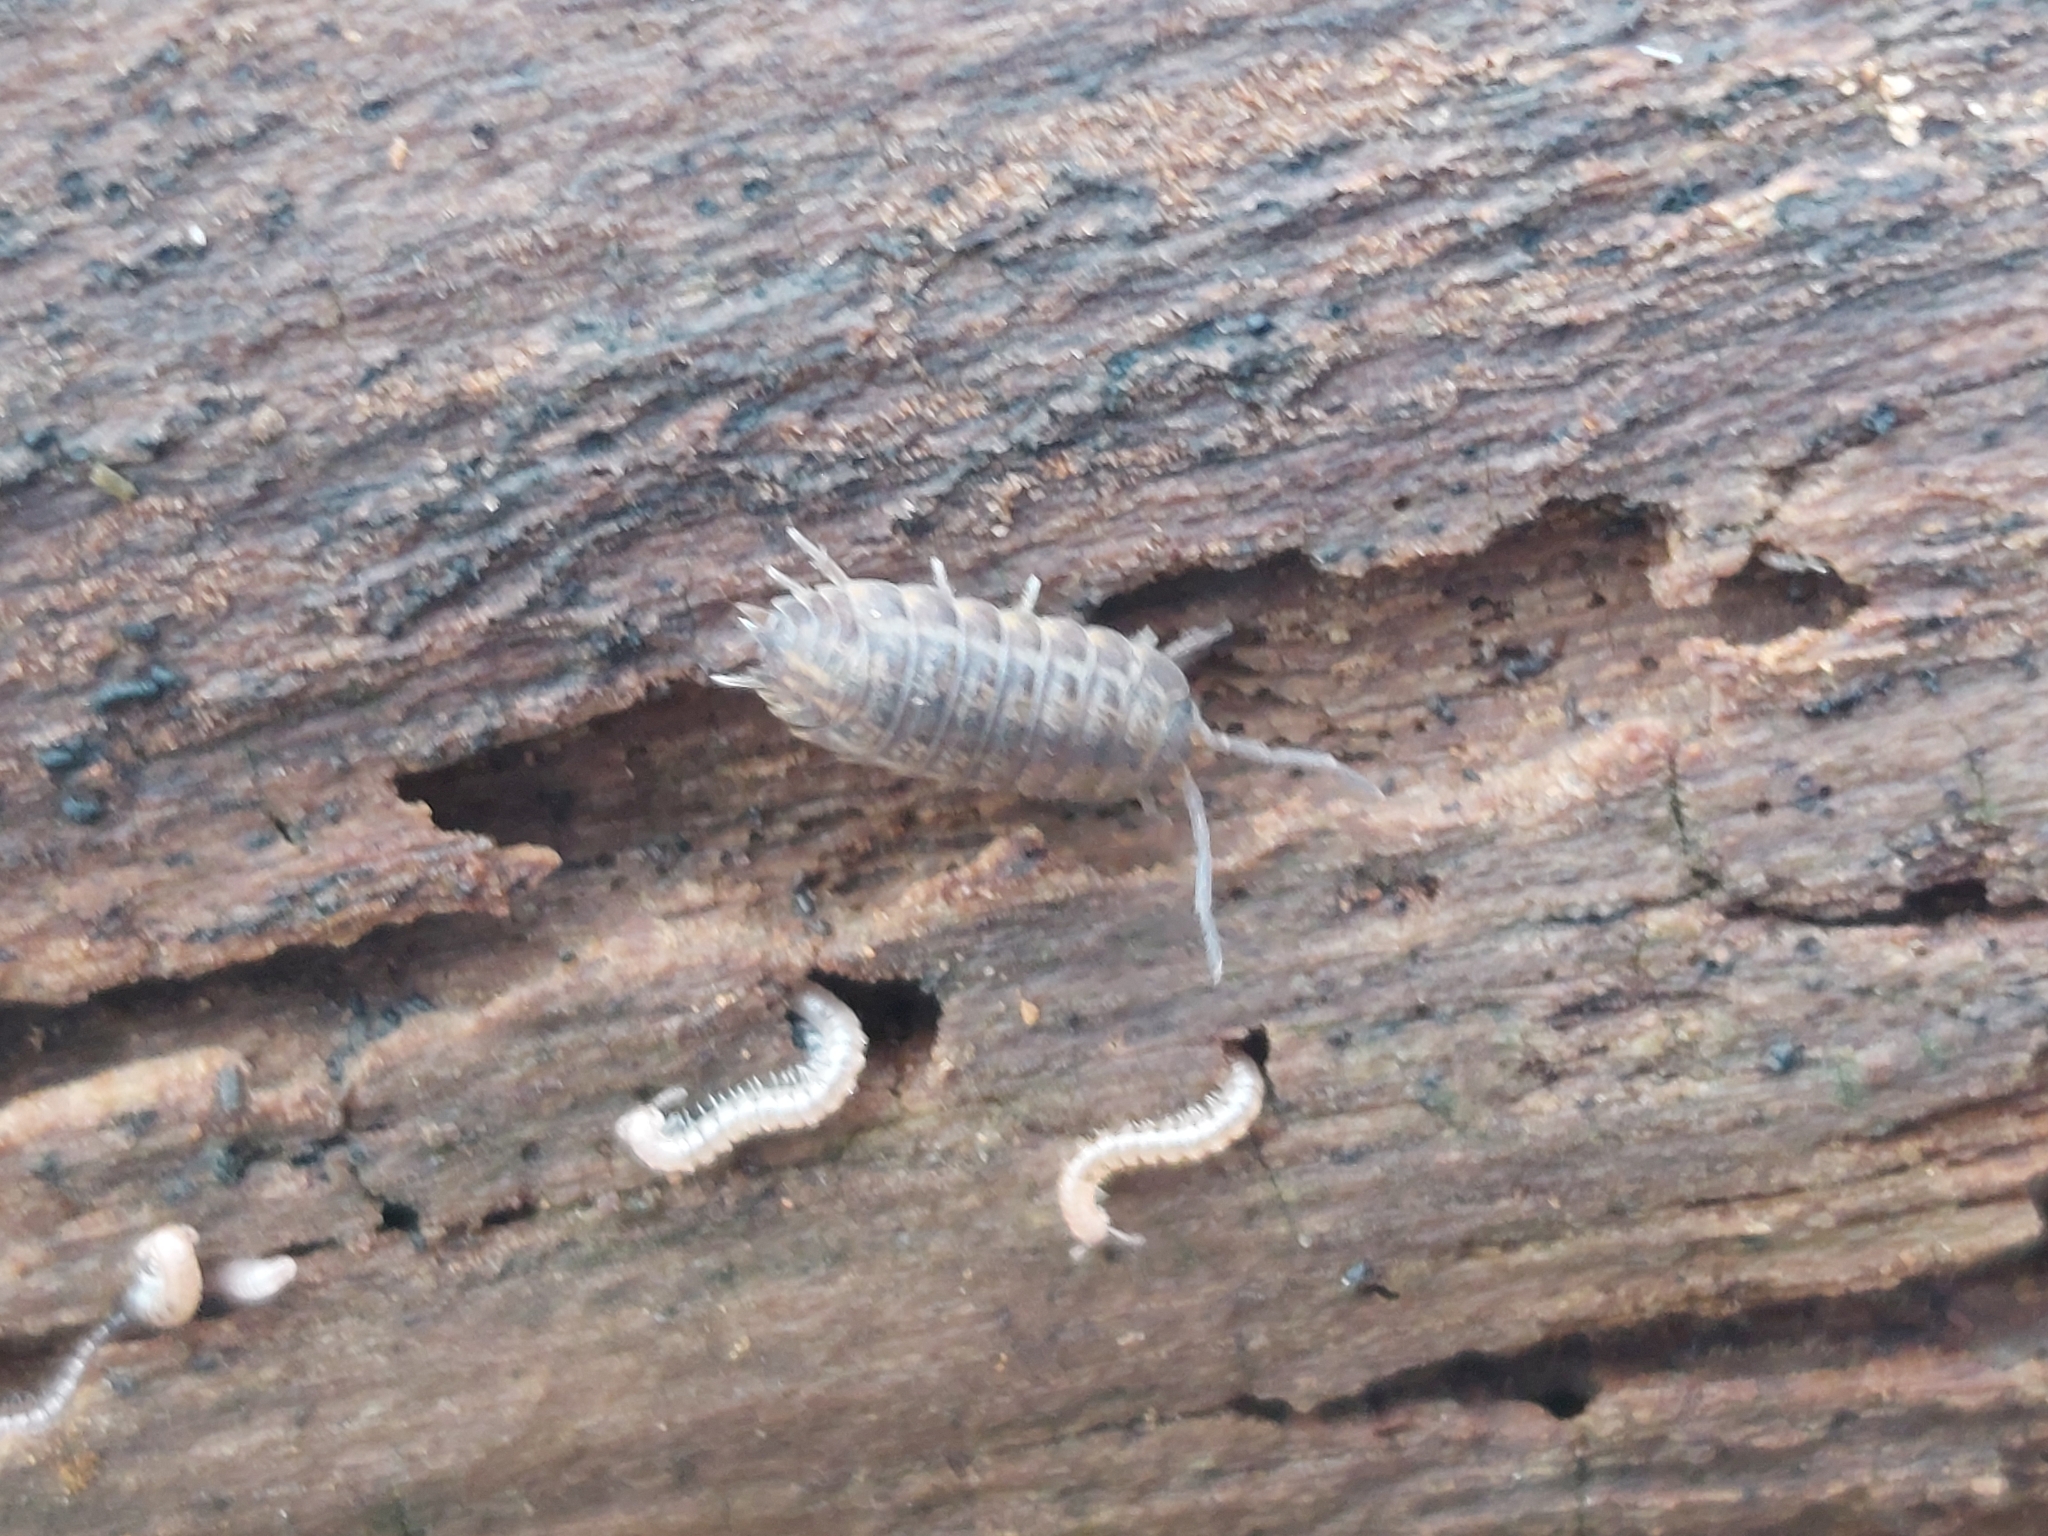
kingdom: Animalia
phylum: Arthropoda
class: Malacostraca
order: Isopoda
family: Trachelipodidae
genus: Trachelipus
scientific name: Trachelipus rathkii
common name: Isopod
